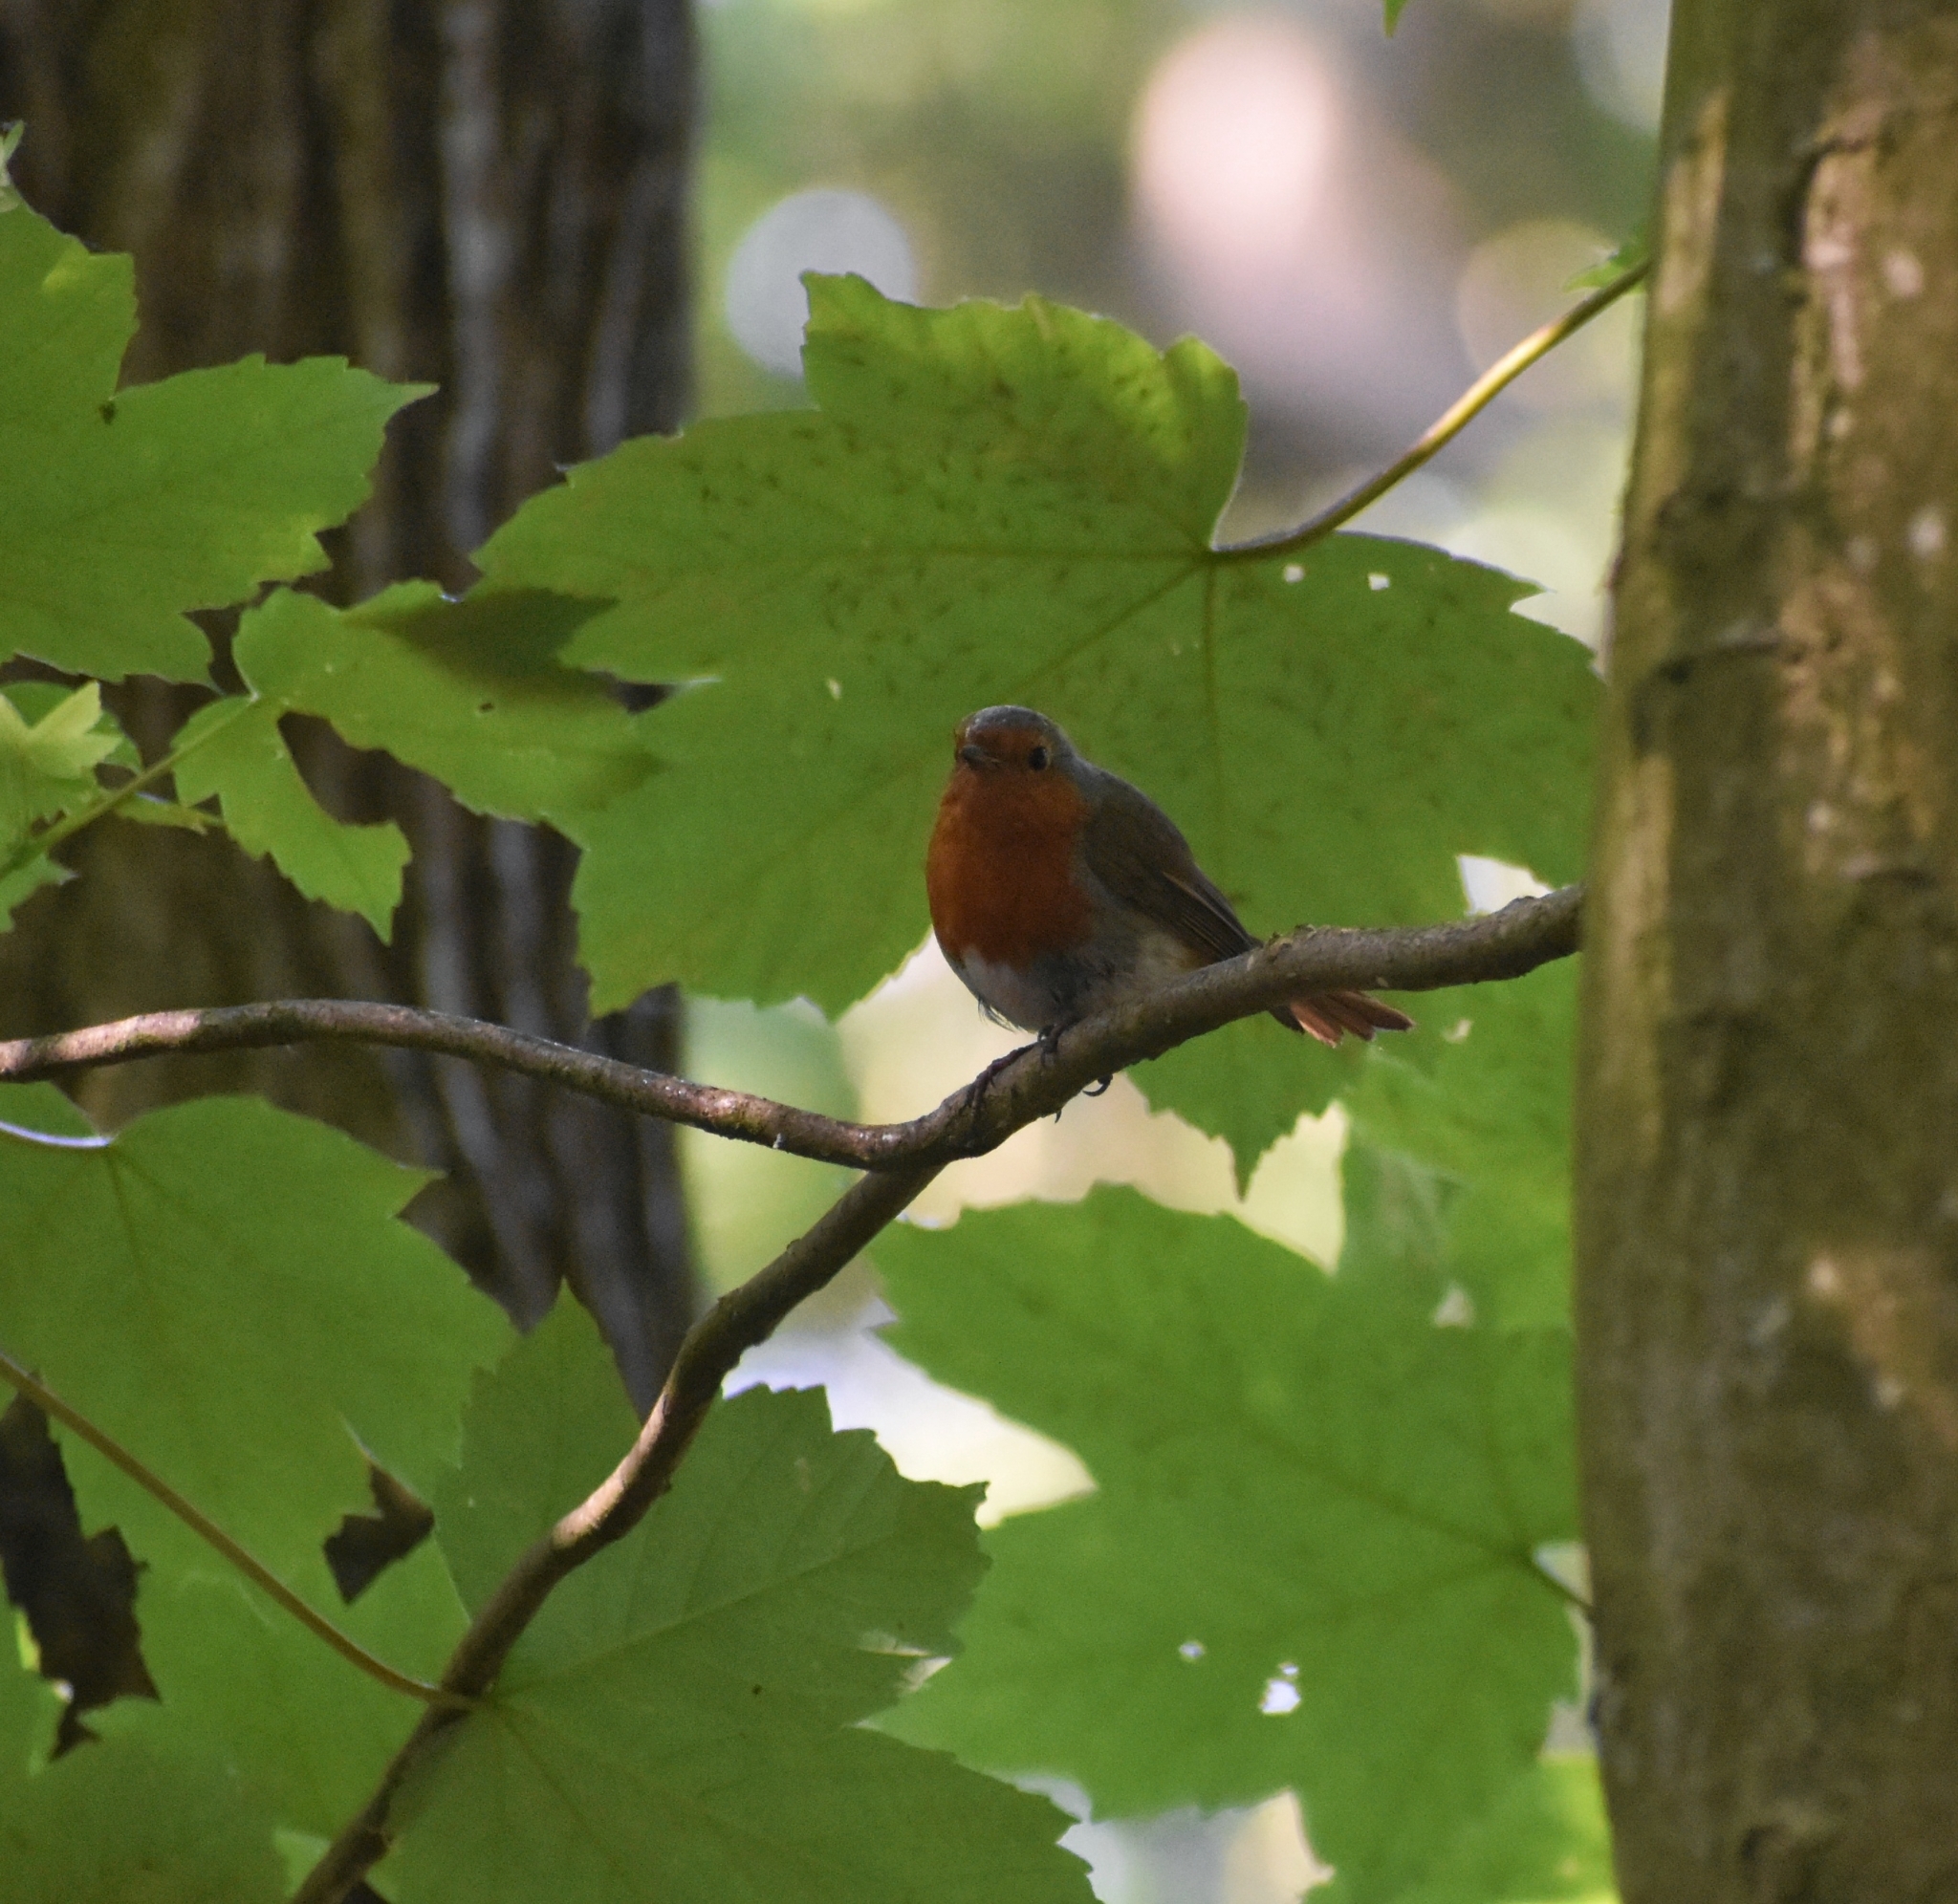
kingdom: Animalia
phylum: Chordata
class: Aves
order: Passeriformes
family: Muscicapidae
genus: Erithacus
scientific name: Erithacus rubecula
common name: European robin
